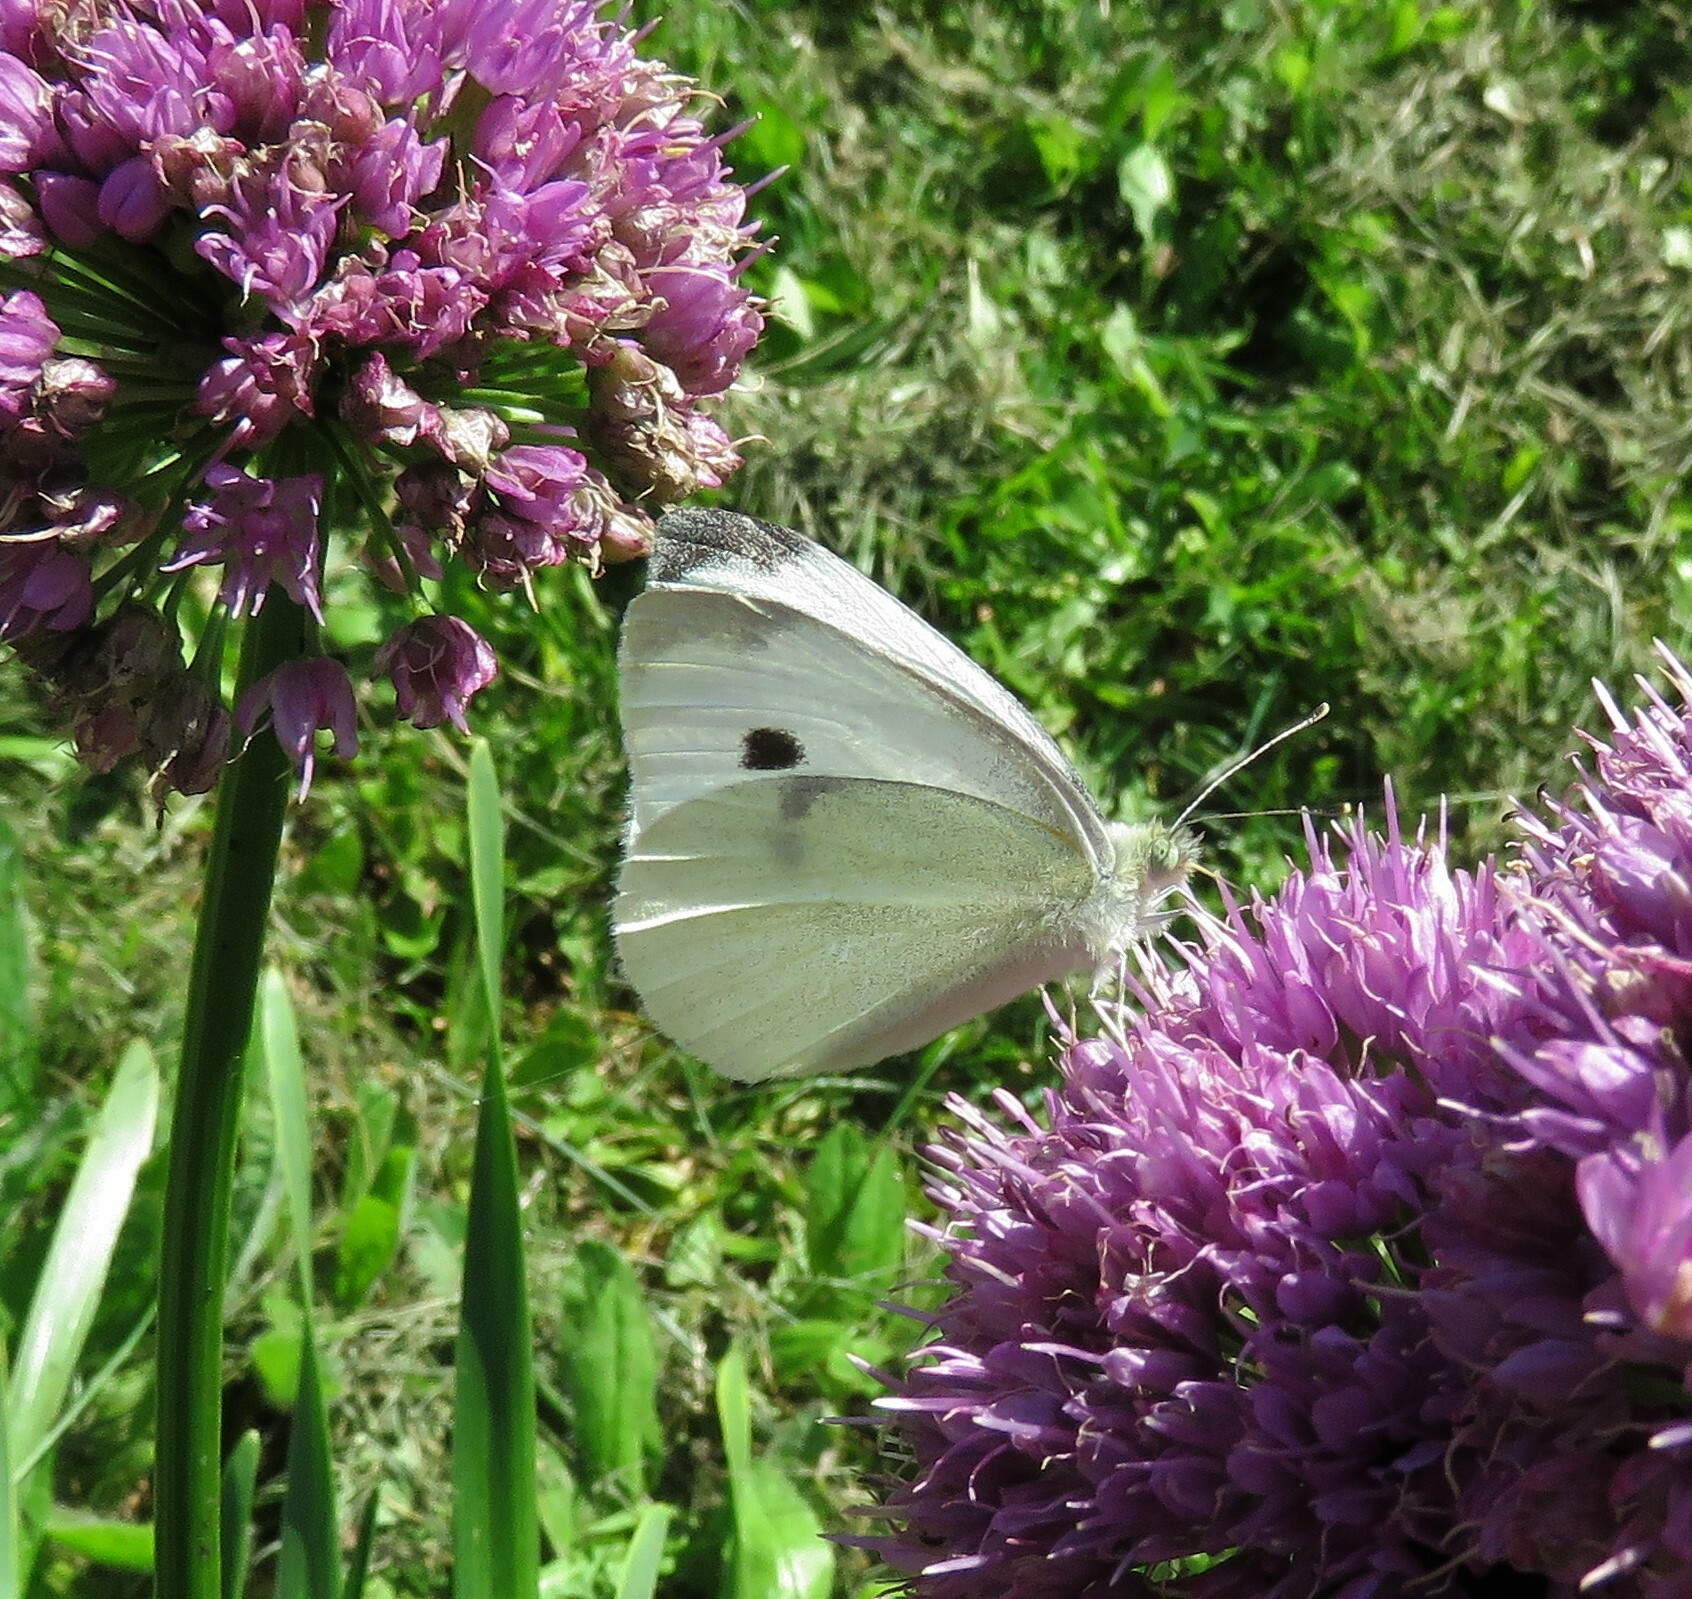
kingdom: Animalia
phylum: Arthropoda
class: Insecta
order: Lepidoptera
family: Pieridae
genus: Pieris
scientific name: Pieris rapae
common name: Small white
